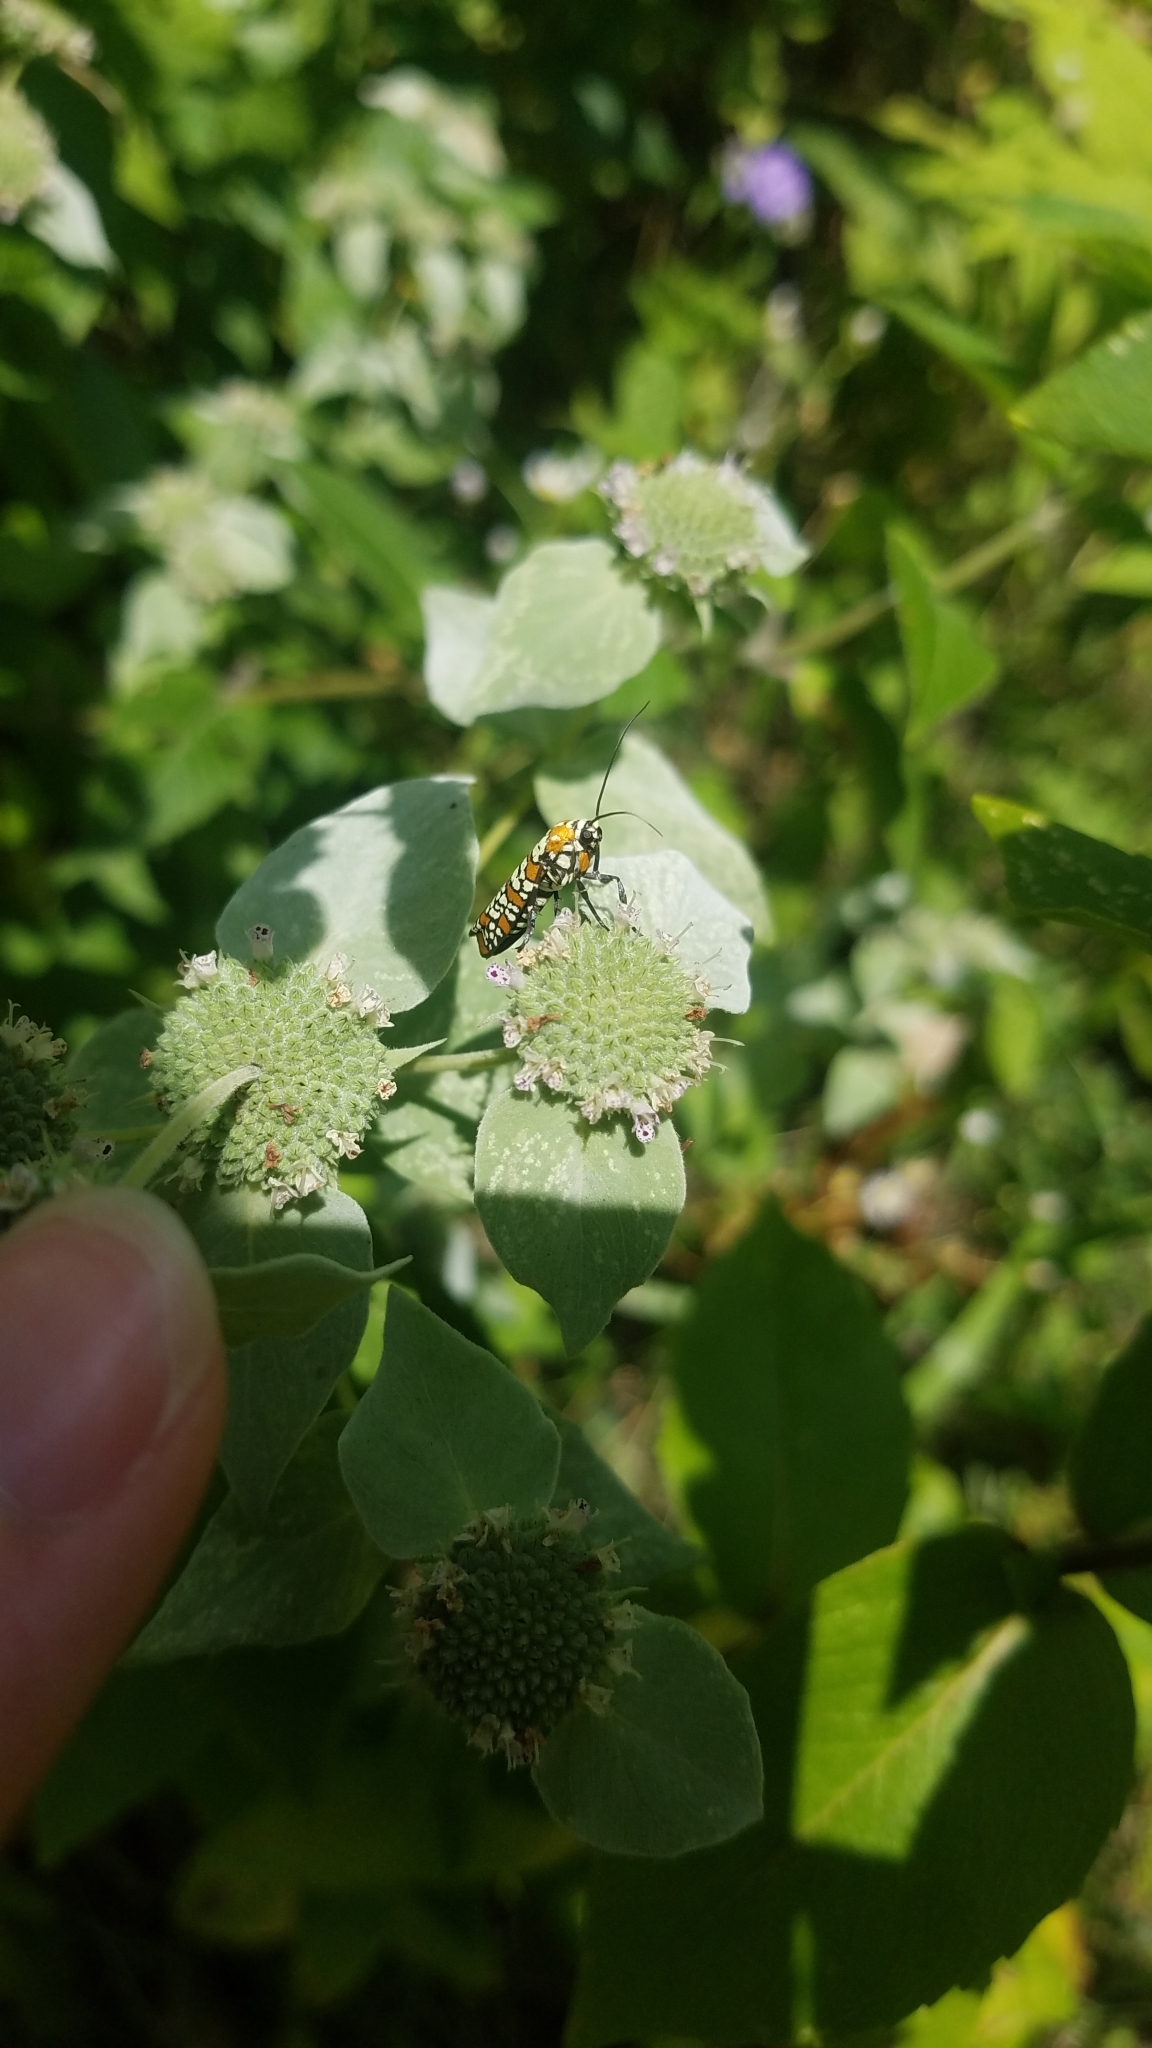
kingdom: Animalia
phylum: Arthropoda
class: Insecta
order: Lepidoptera
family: Attevidae
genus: Atteva
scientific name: Atteva punctella
